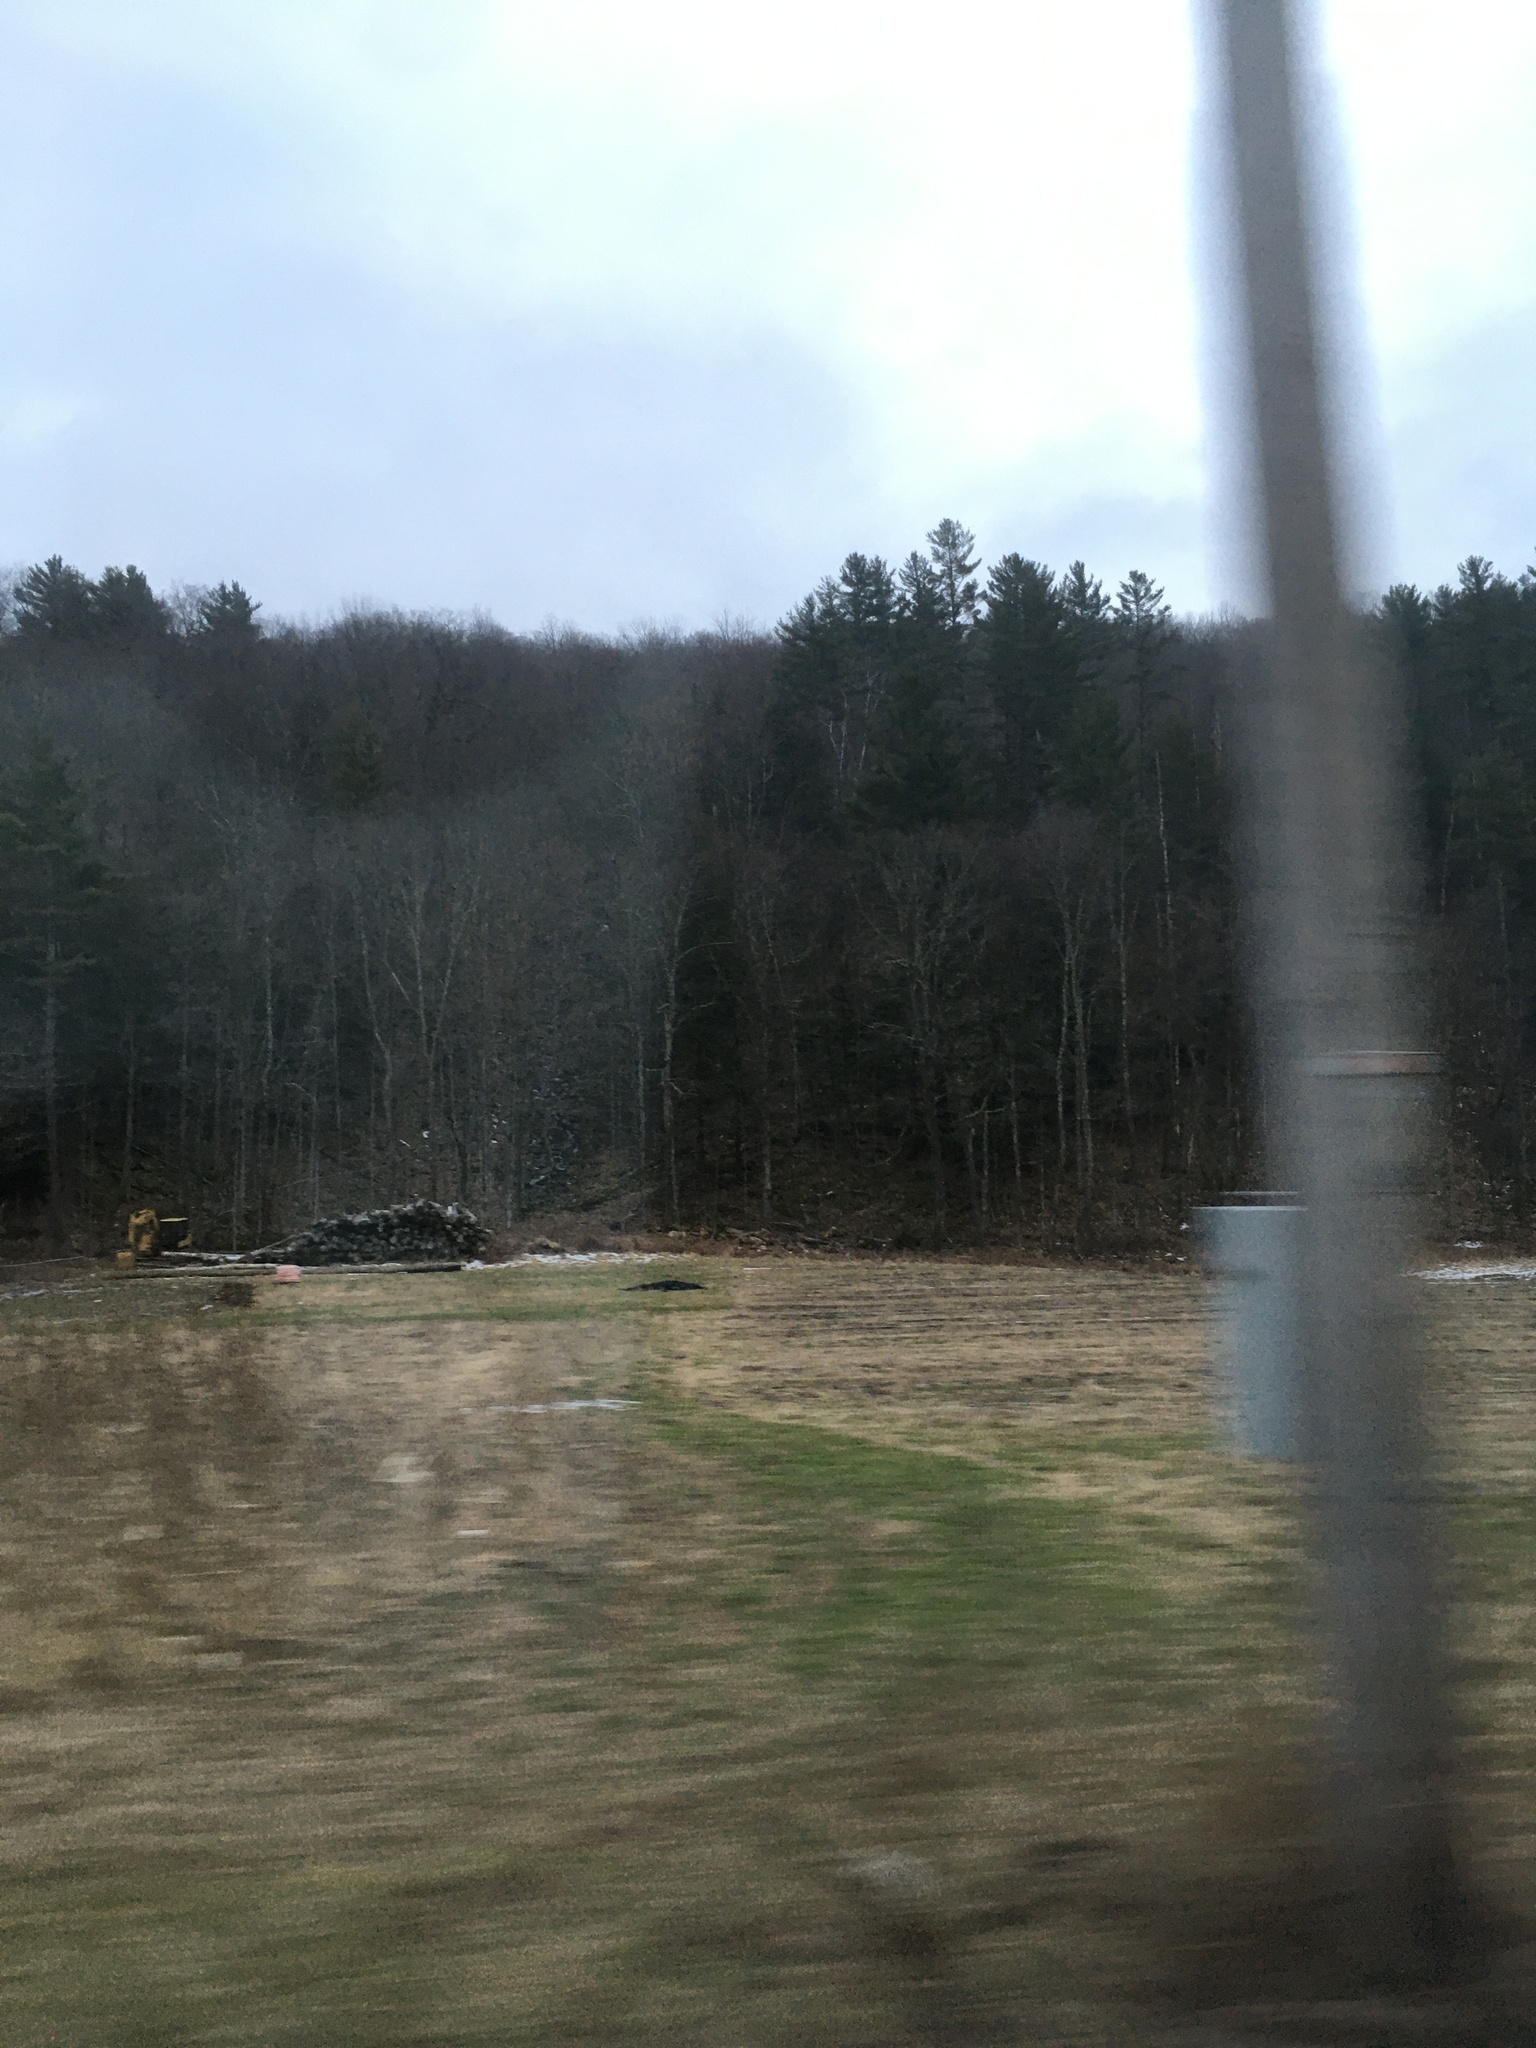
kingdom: Plantae
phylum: Tracheophyta
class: Pinopsida
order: Pinales
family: Pinaceae
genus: Pinus
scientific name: Pinus strobus
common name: Weymouth pine
